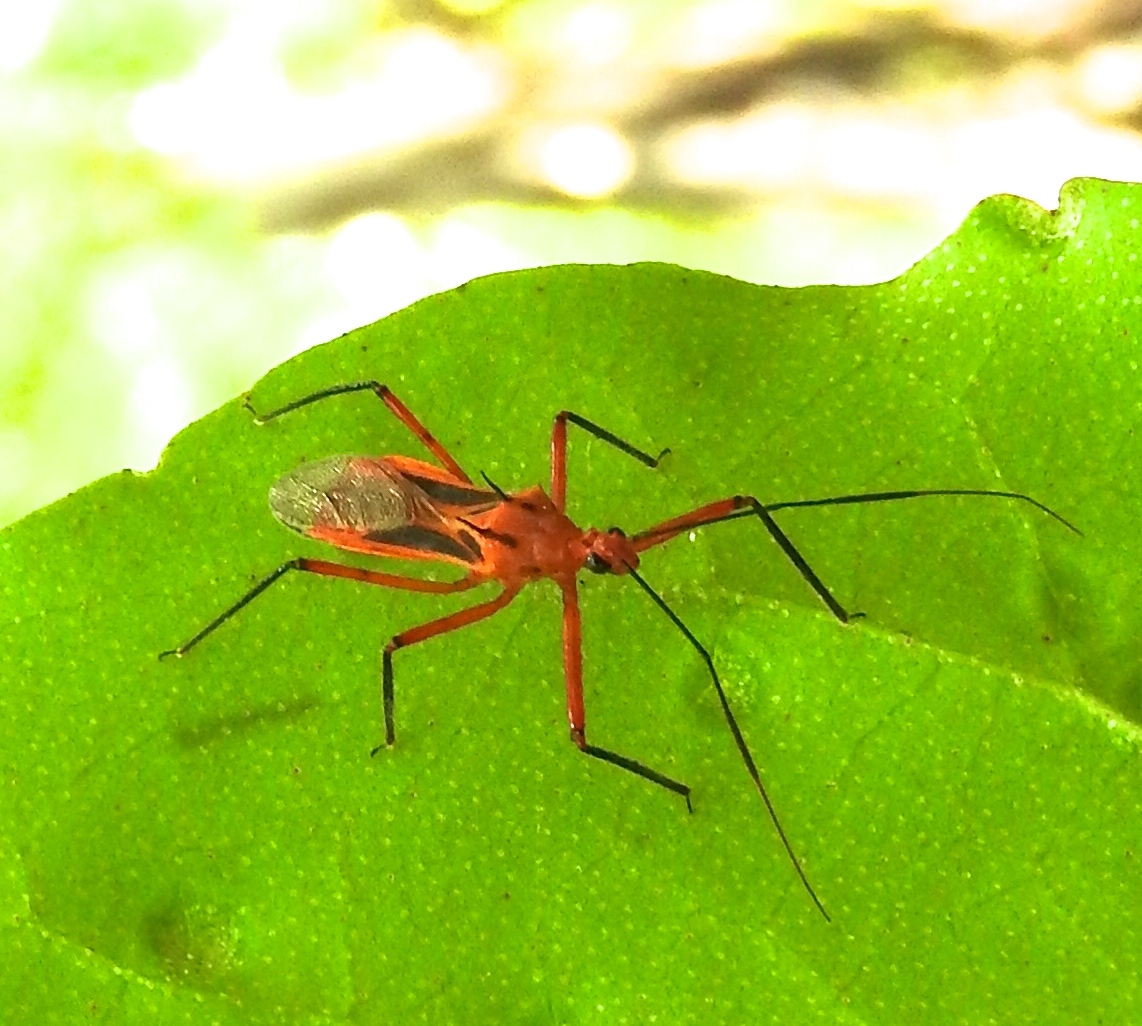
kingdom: Animalia
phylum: Arthropoda
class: Insecta
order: Hemiptera
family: Reduviidae
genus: Repipta
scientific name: Repipta
